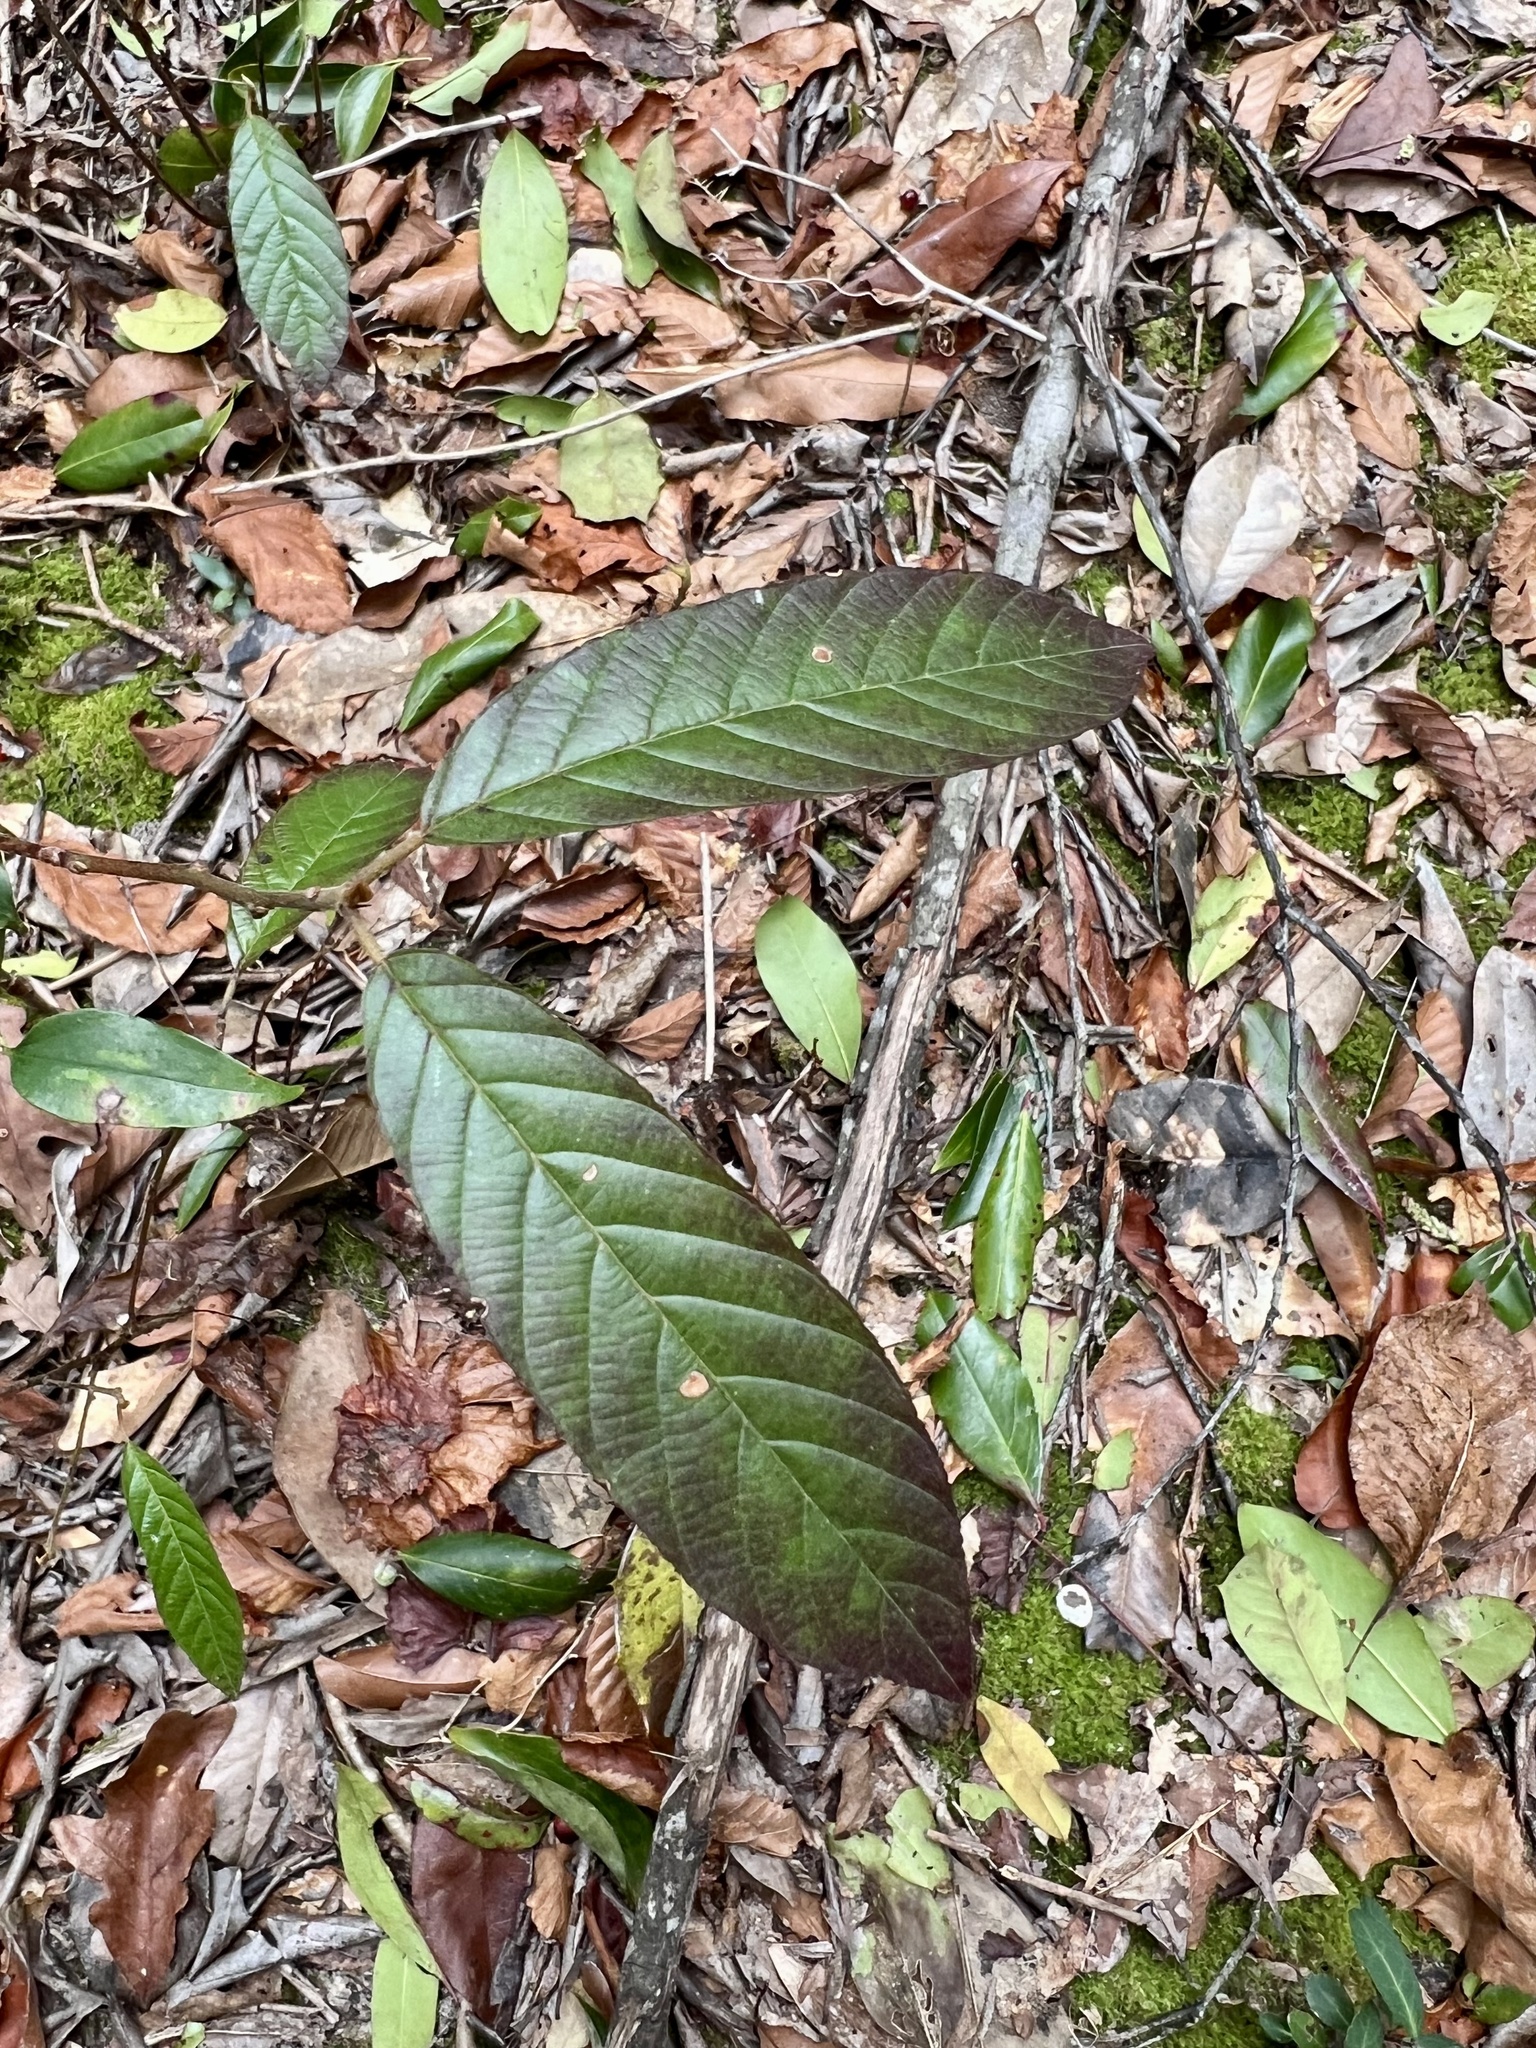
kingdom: Plantae
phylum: Tracheophyta
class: Magnoliopsida
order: Rosales
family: Rhamnaceae
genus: Frangula
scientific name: Frangula caroliniana
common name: Carolina buckthorn
